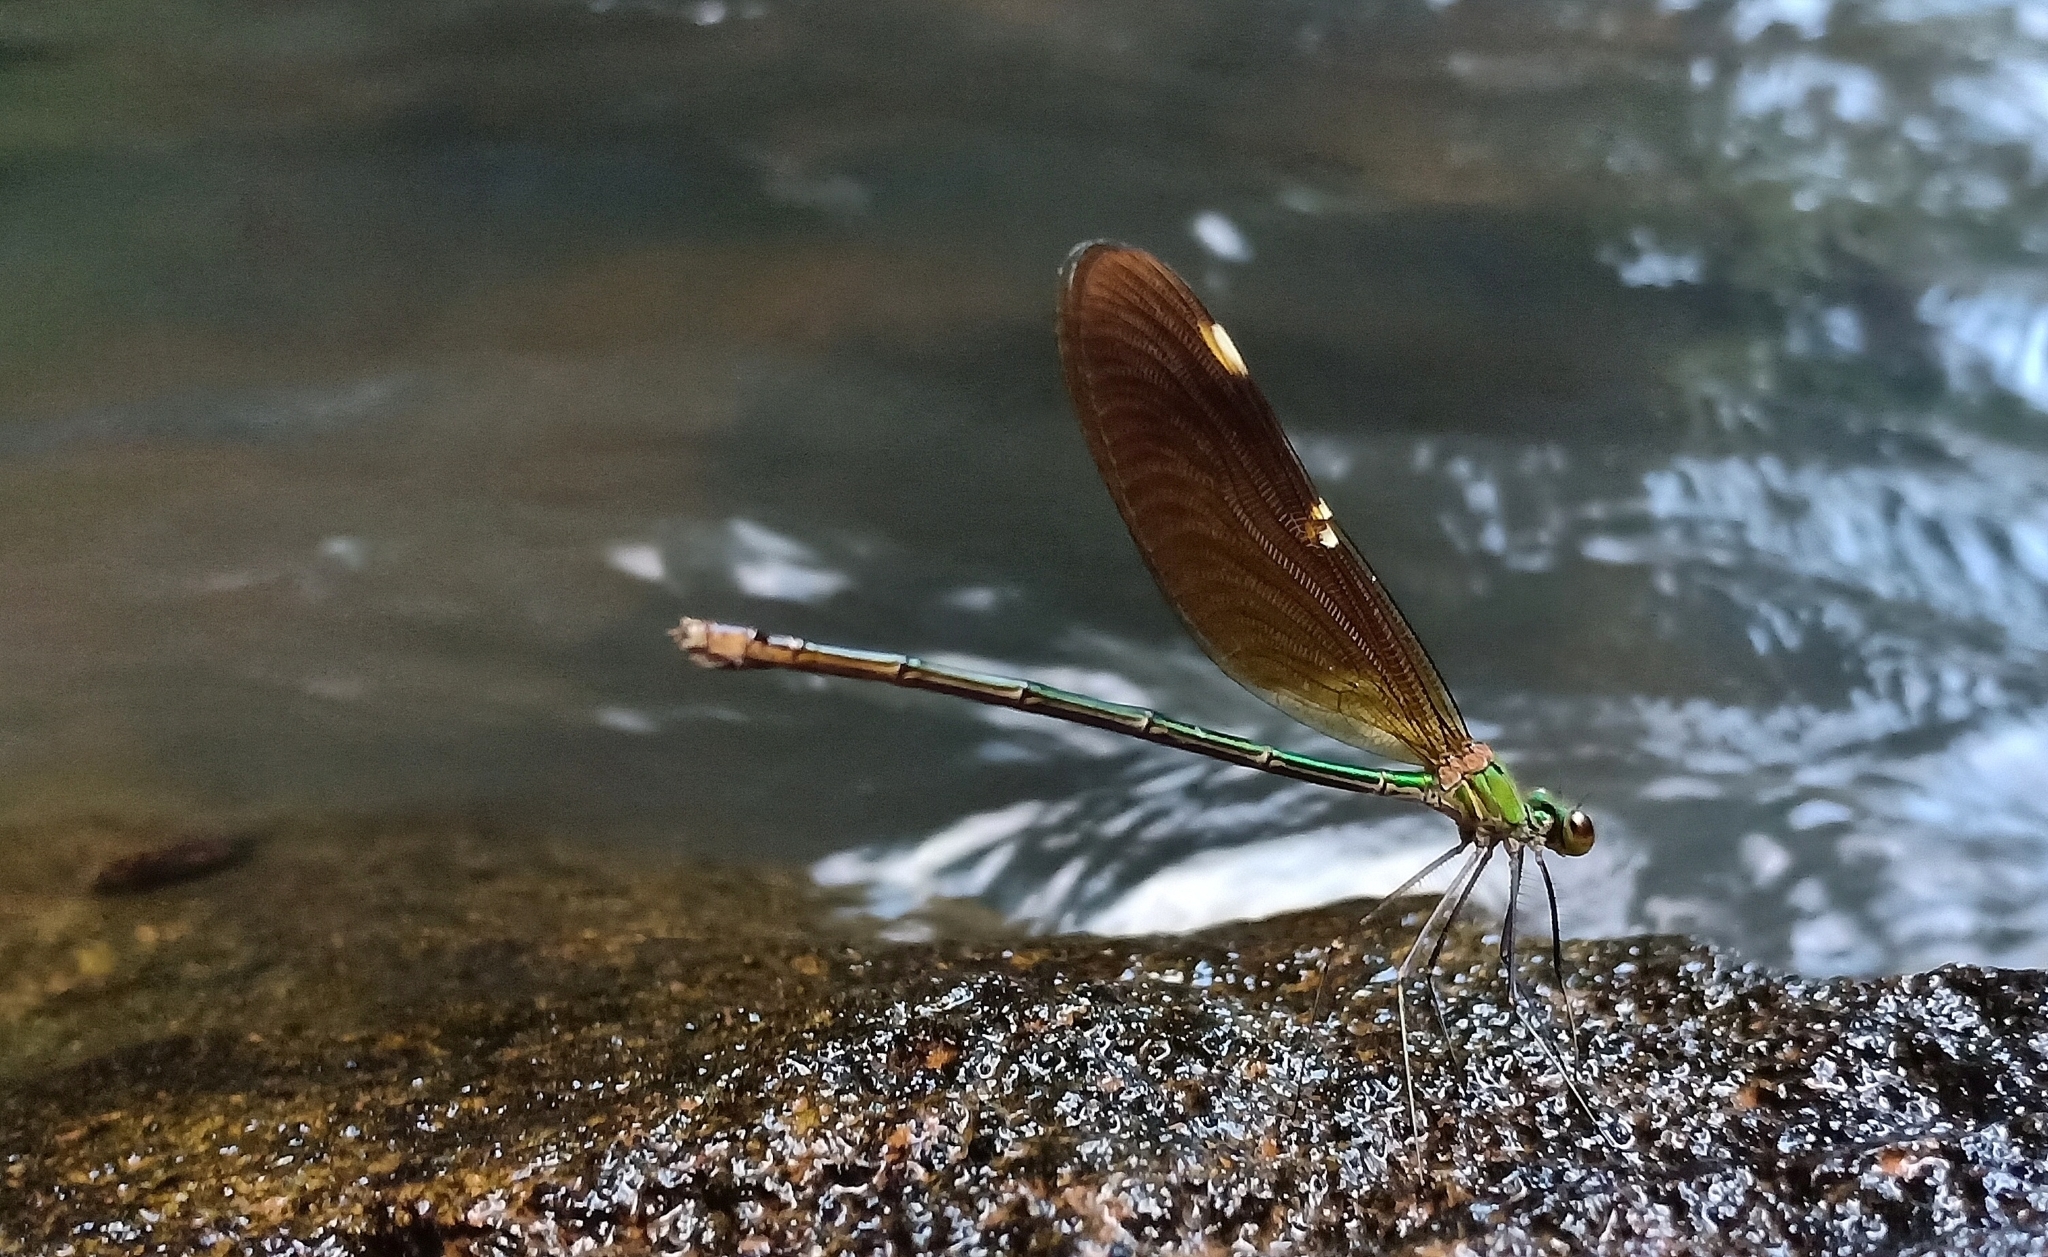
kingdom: Animalia
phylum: Arthropoda
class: Insecta
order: Odonata
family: Calopterygidae
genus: Neurobasis
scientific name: Neurobasis chinensis
